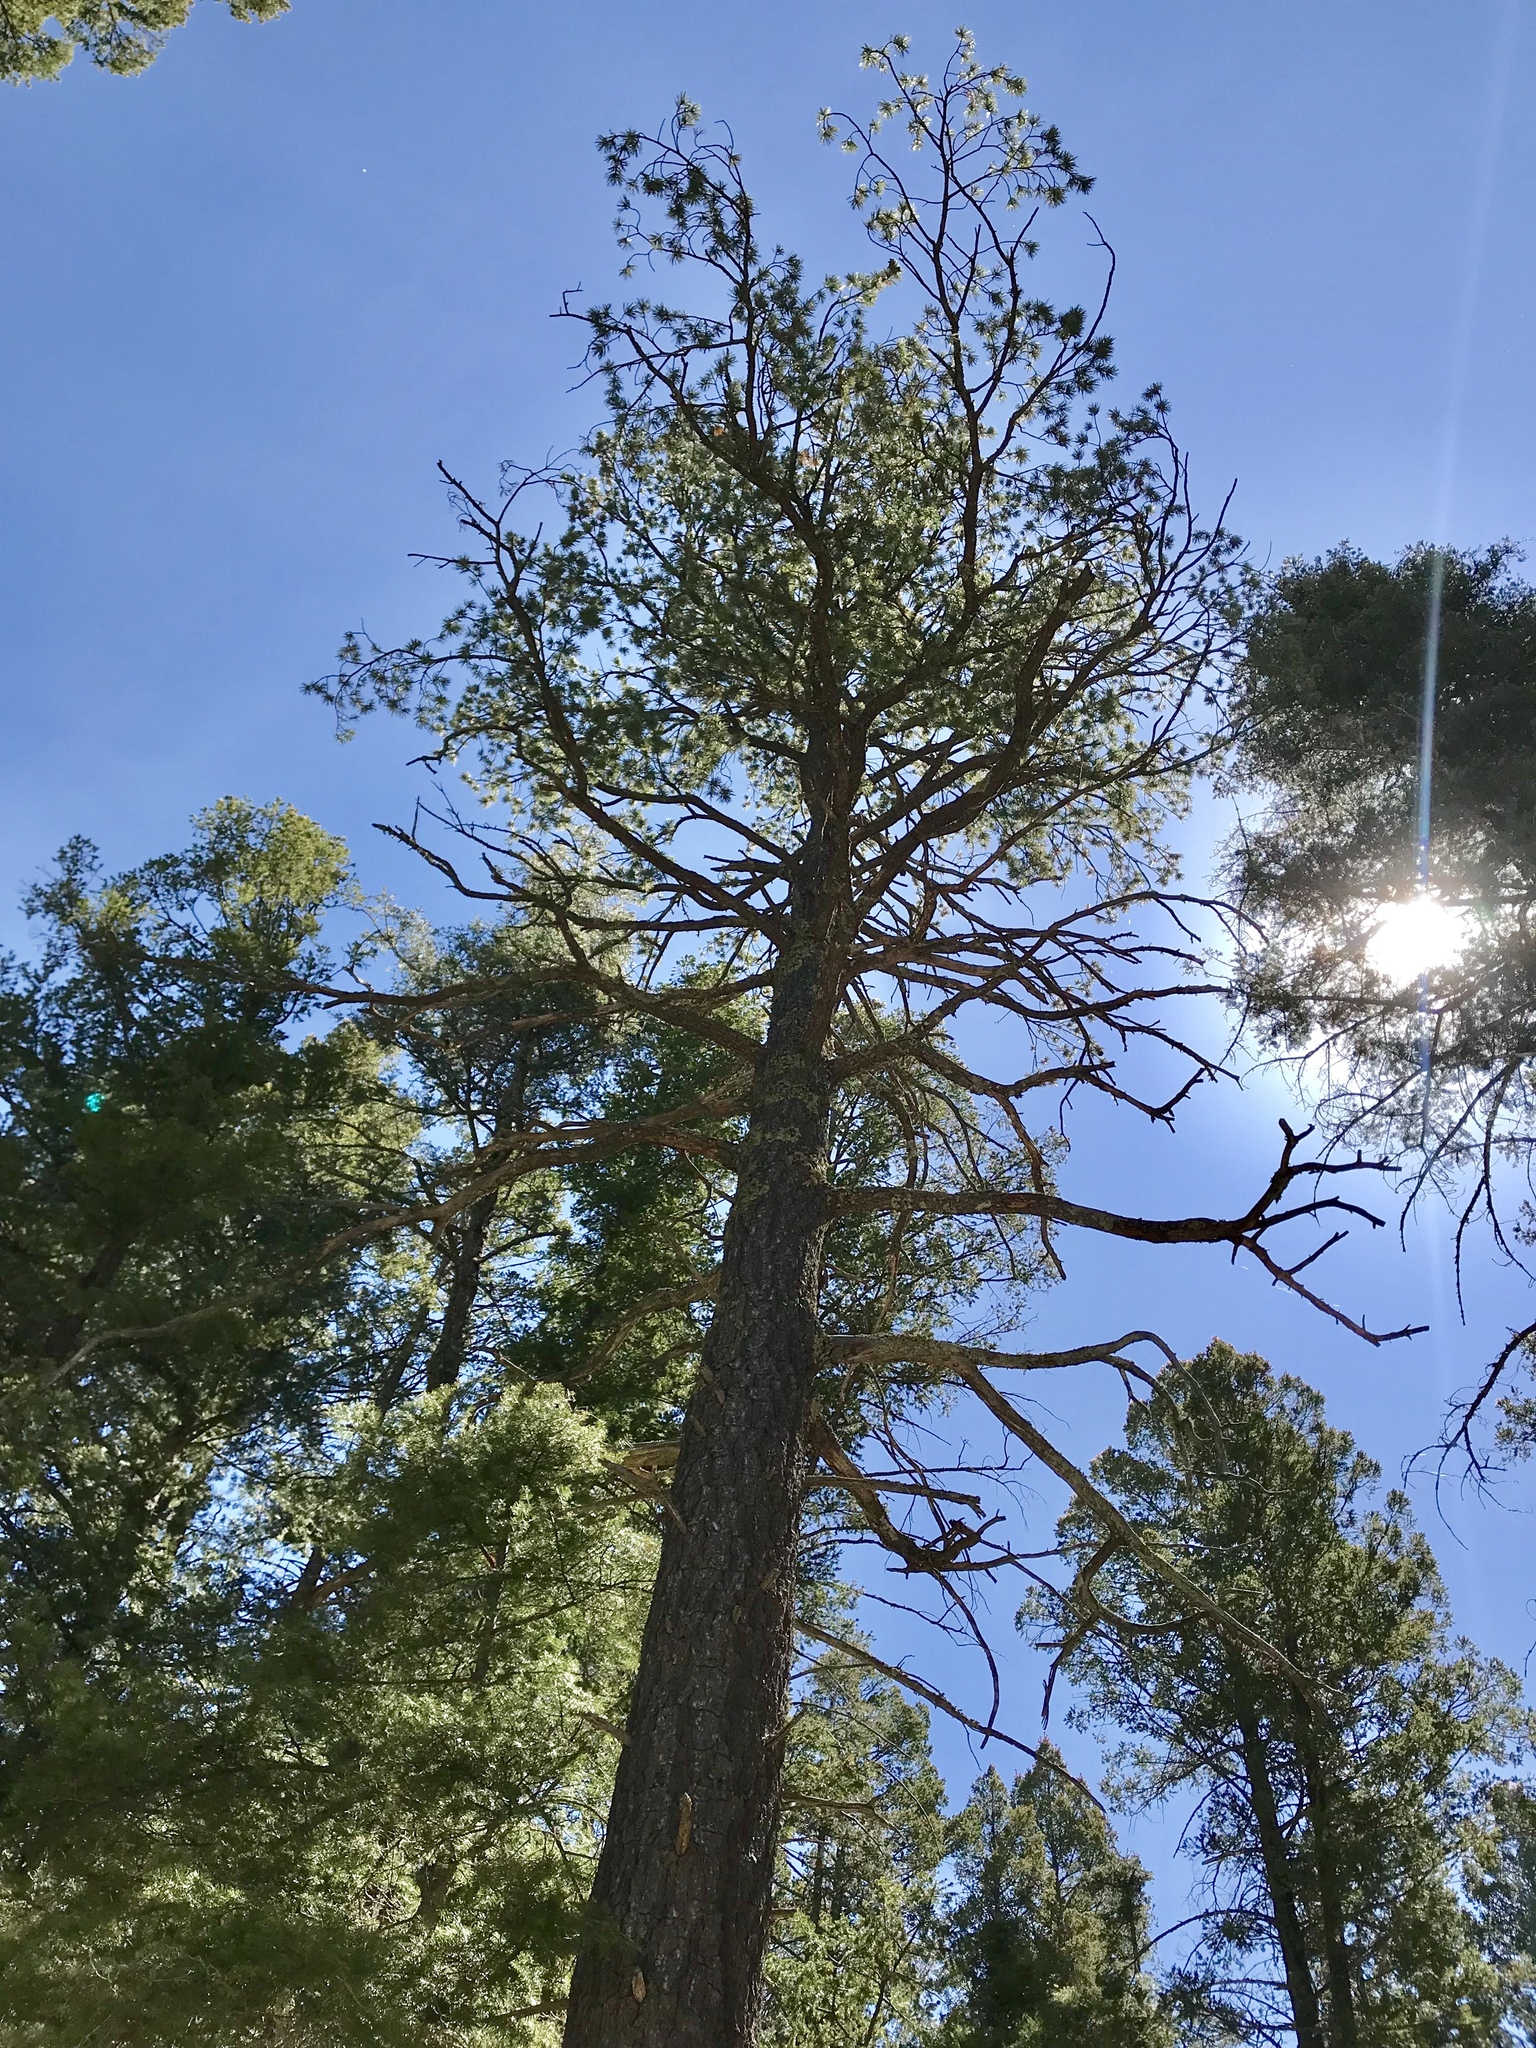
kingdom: Plantae
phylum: Tracheophyta
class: Pinopsida
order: Pinales
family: Pinaceae
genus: Pinus
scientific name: Pinus strobiformis
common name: Southwestern white pine
